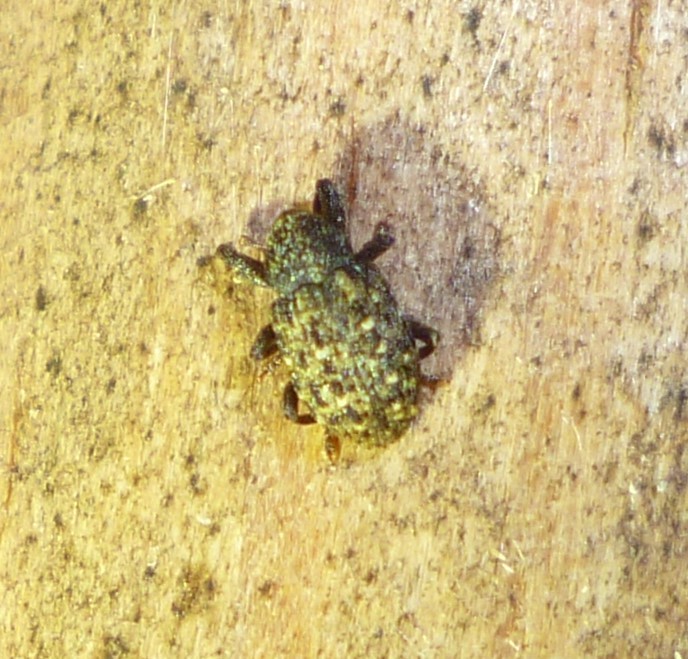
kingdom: Animalia
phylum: Arthropoda
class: Insecta
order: Coleoptera
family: Curculionidae
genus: Apteromechus
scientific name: Apteromechus ferratus
